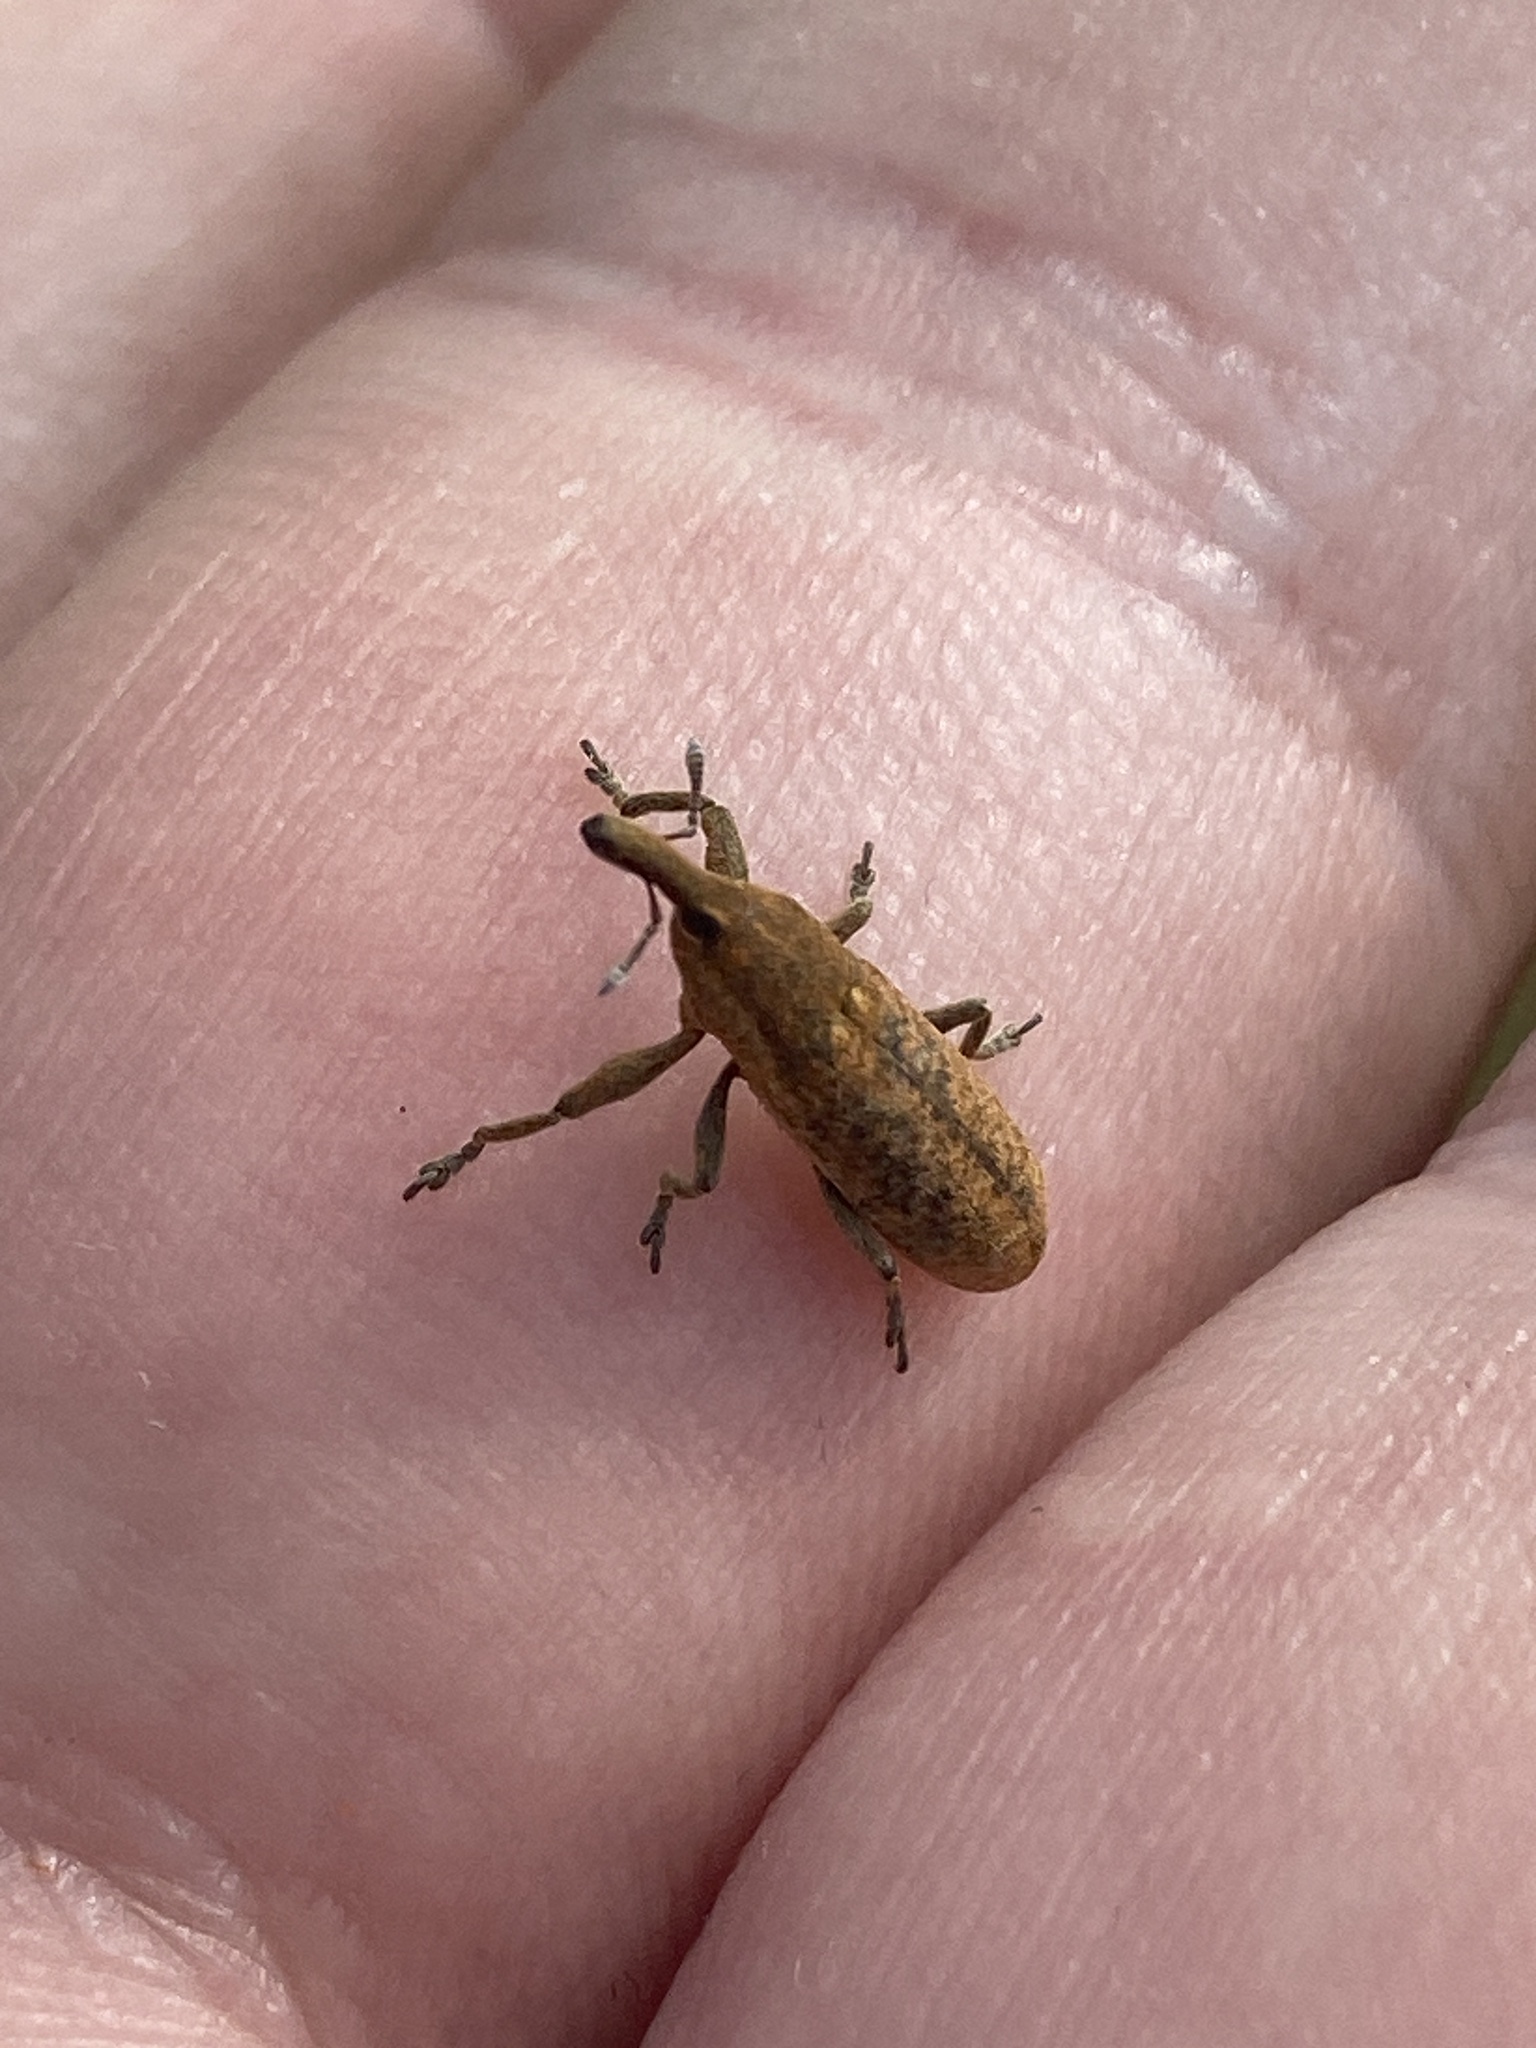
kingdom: Animalia
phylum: Arthropoda
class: Insecta
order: Coleoptera
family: Curculionidae
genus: Lixus
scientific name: Lixus punctiventris
